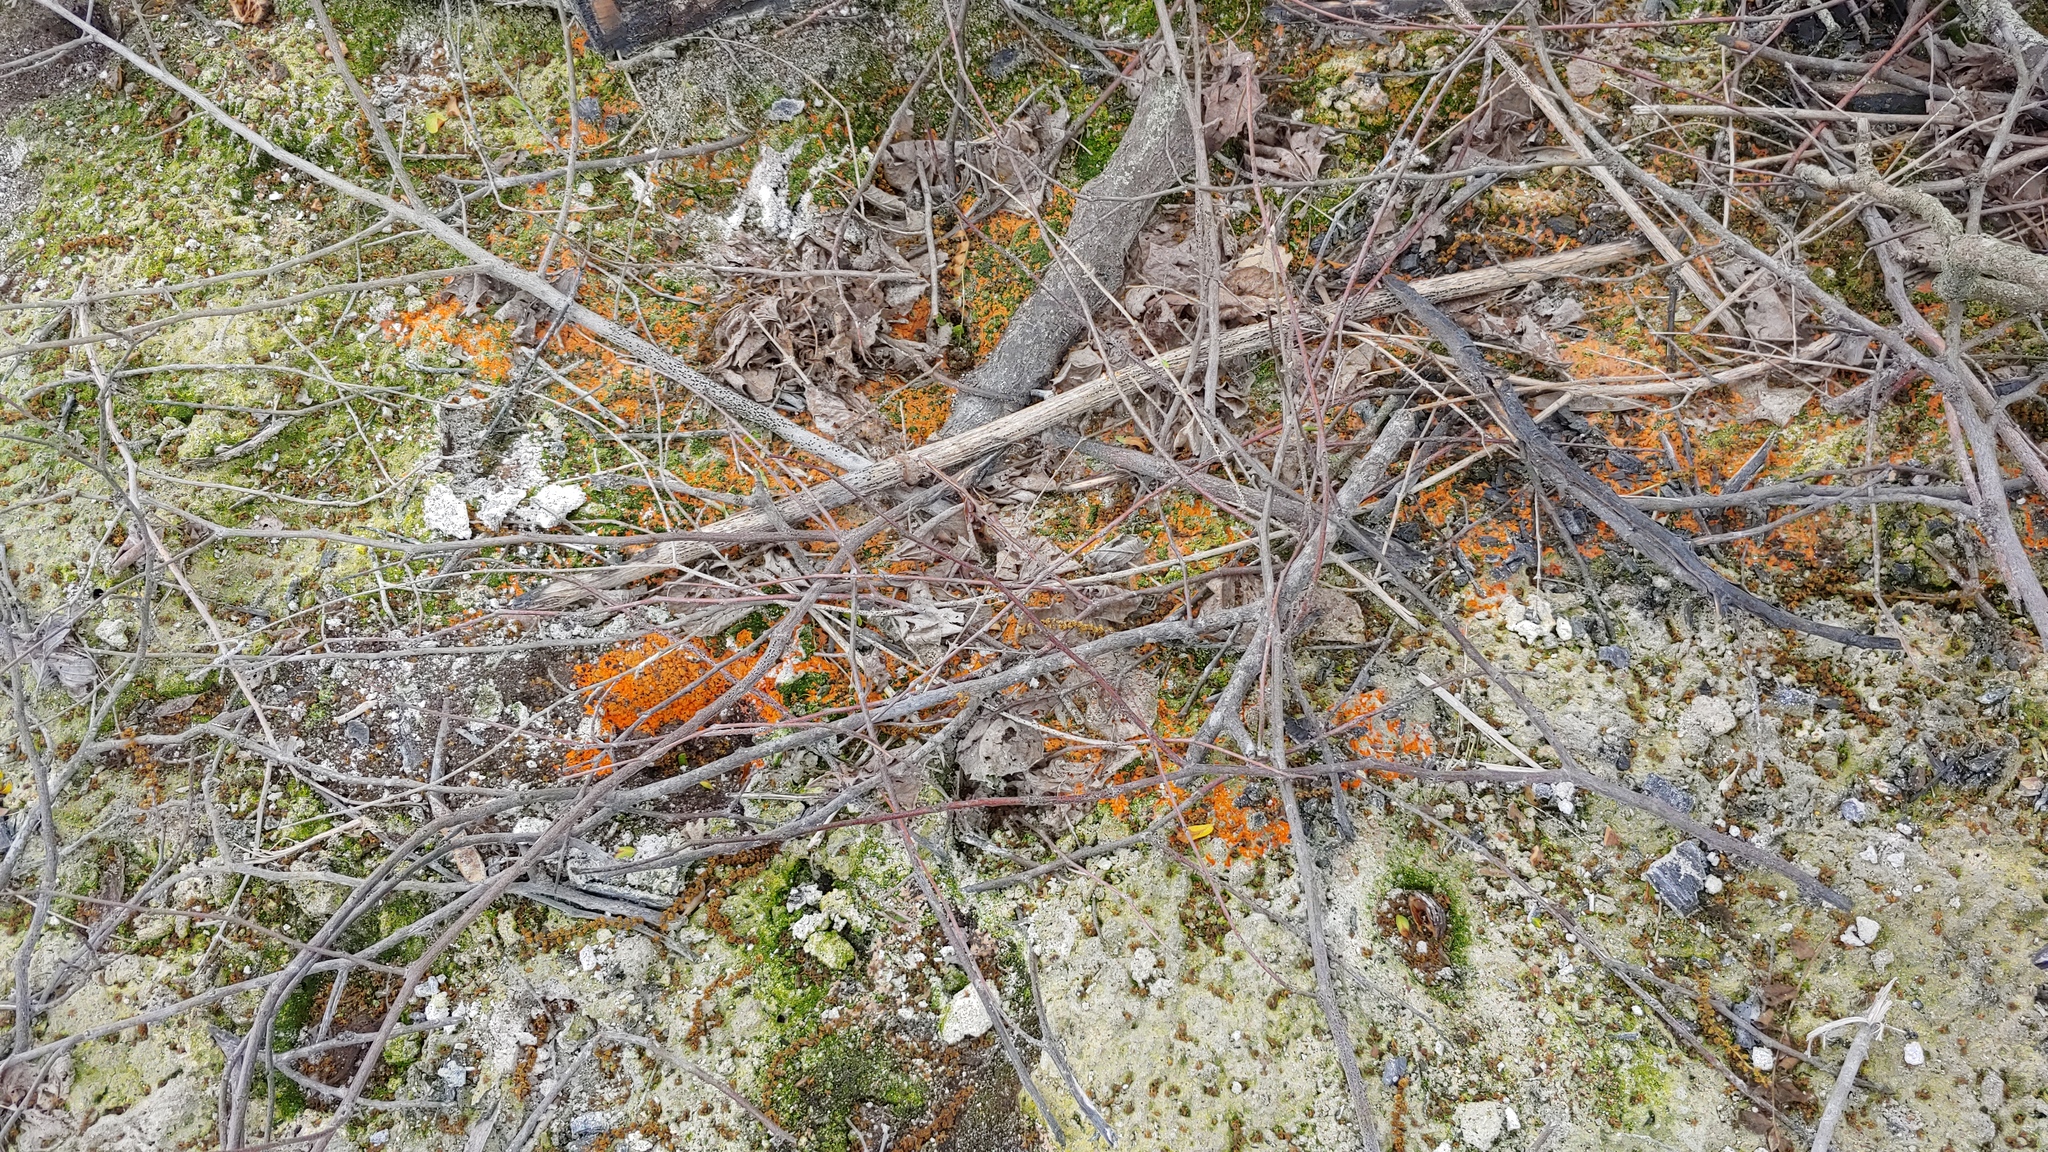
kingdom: Fungi
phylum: Ascomycota
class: Pezizomycetes
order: Pezizales
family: Pyronemataceae
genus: Pyronema
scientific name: Pyronema omphalodes
